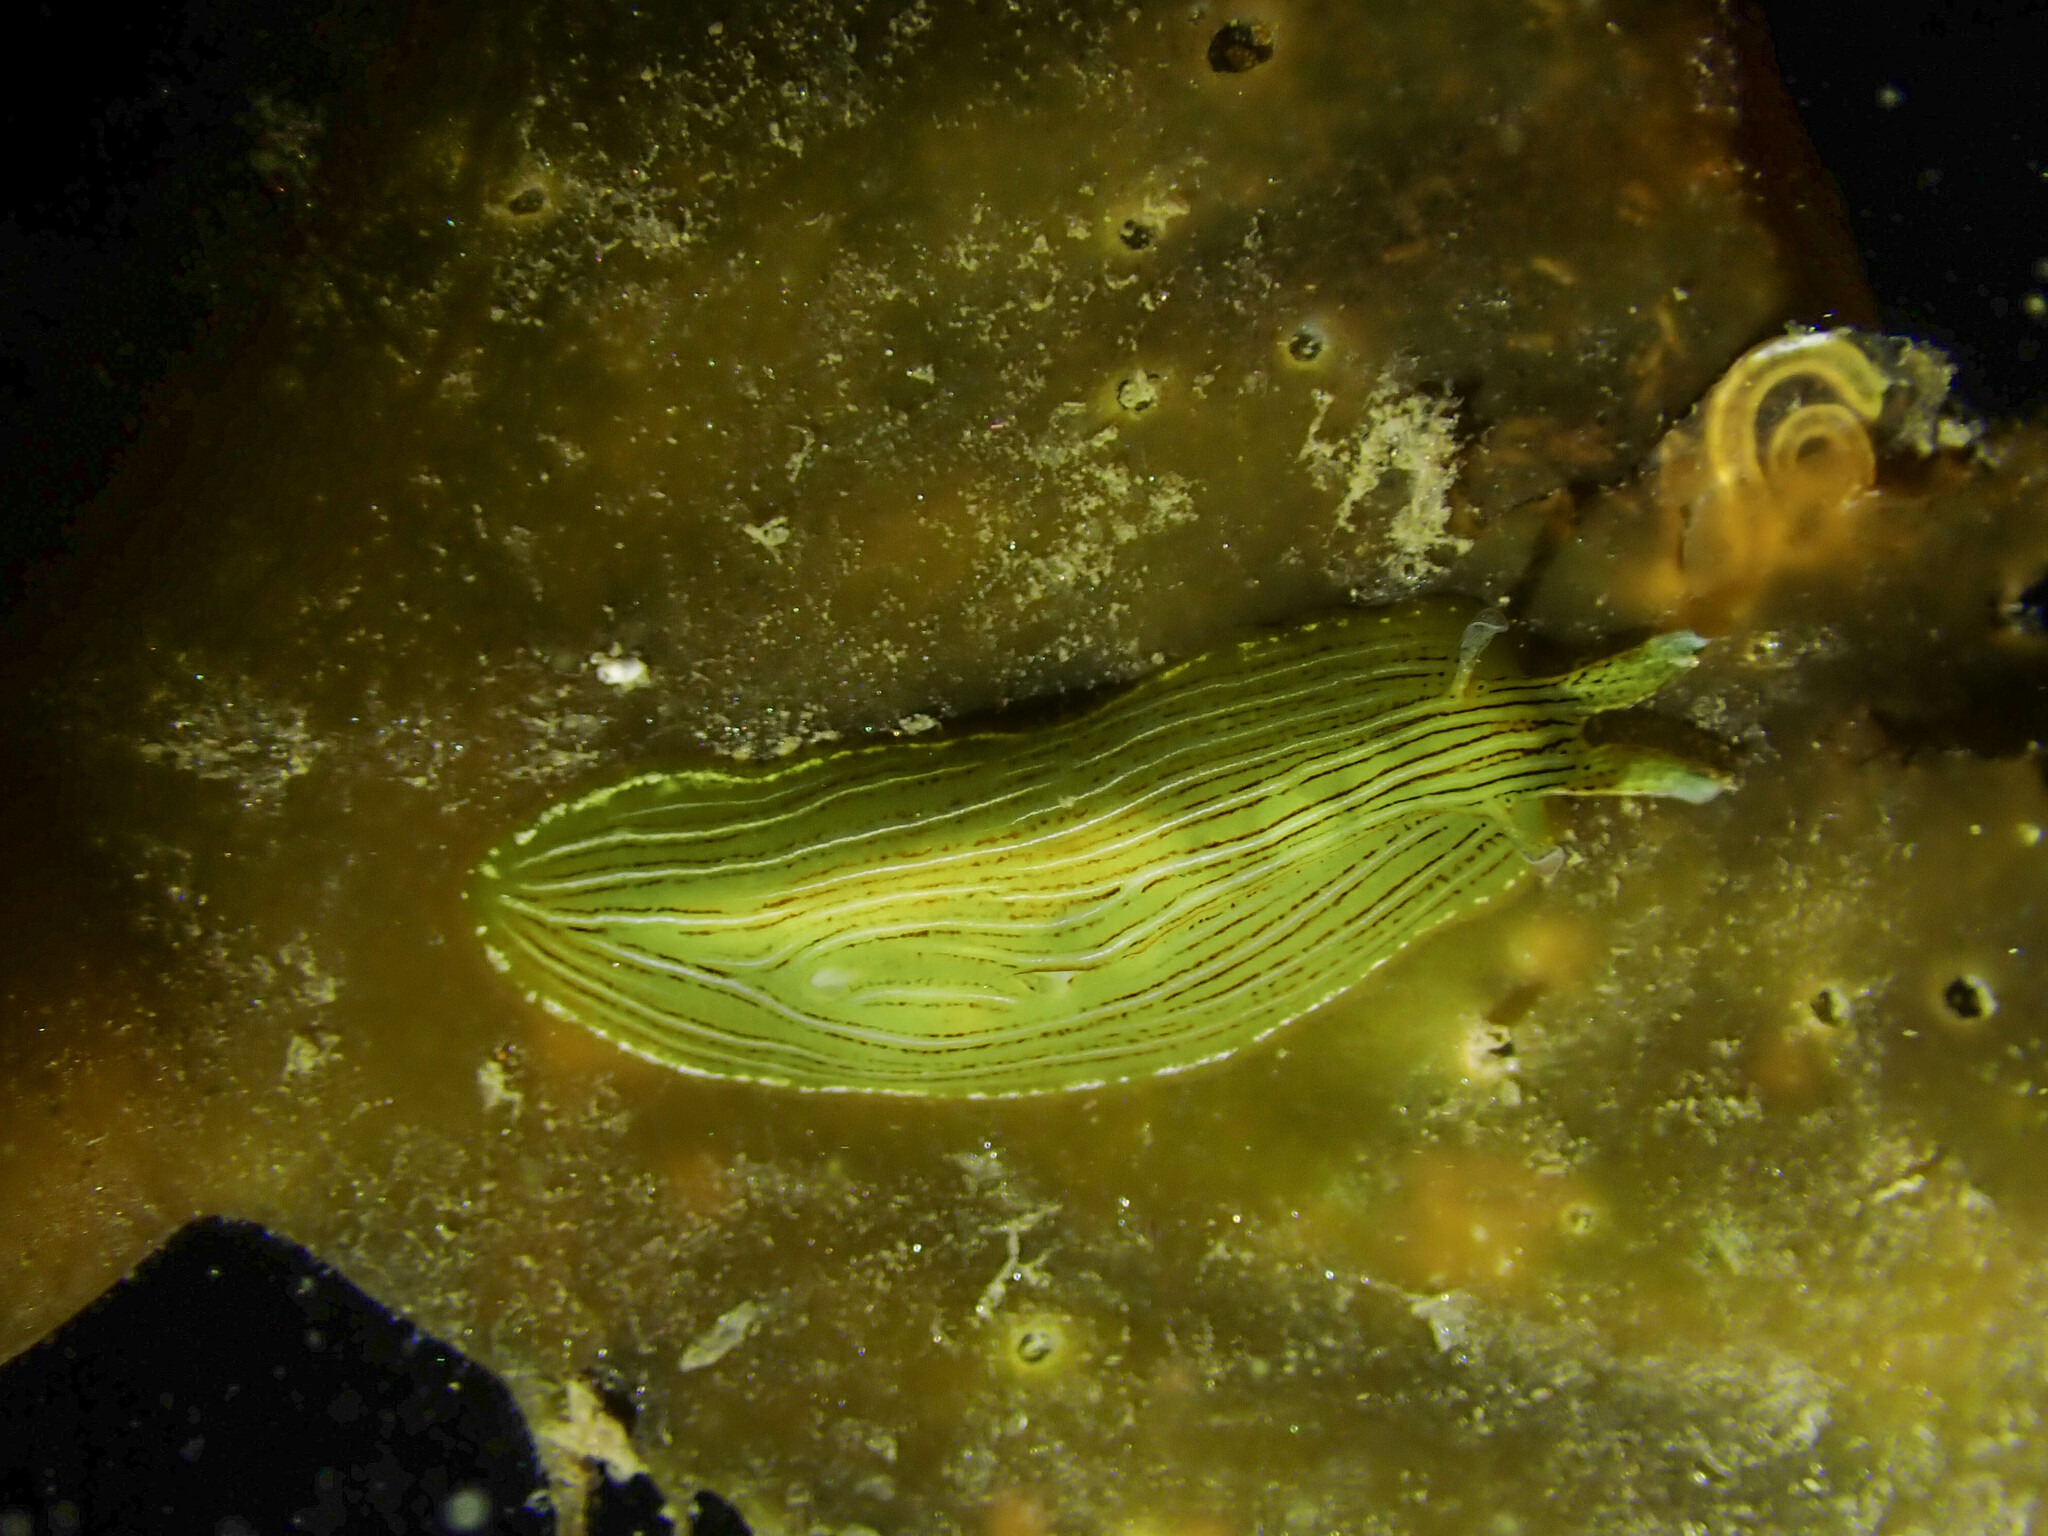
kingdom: Animalia
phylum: Mollusca
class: Gastropoda
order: Aplysiida
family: Aplysiidae
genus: Phyllaplysia
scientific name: Phyllaplysia taylori
